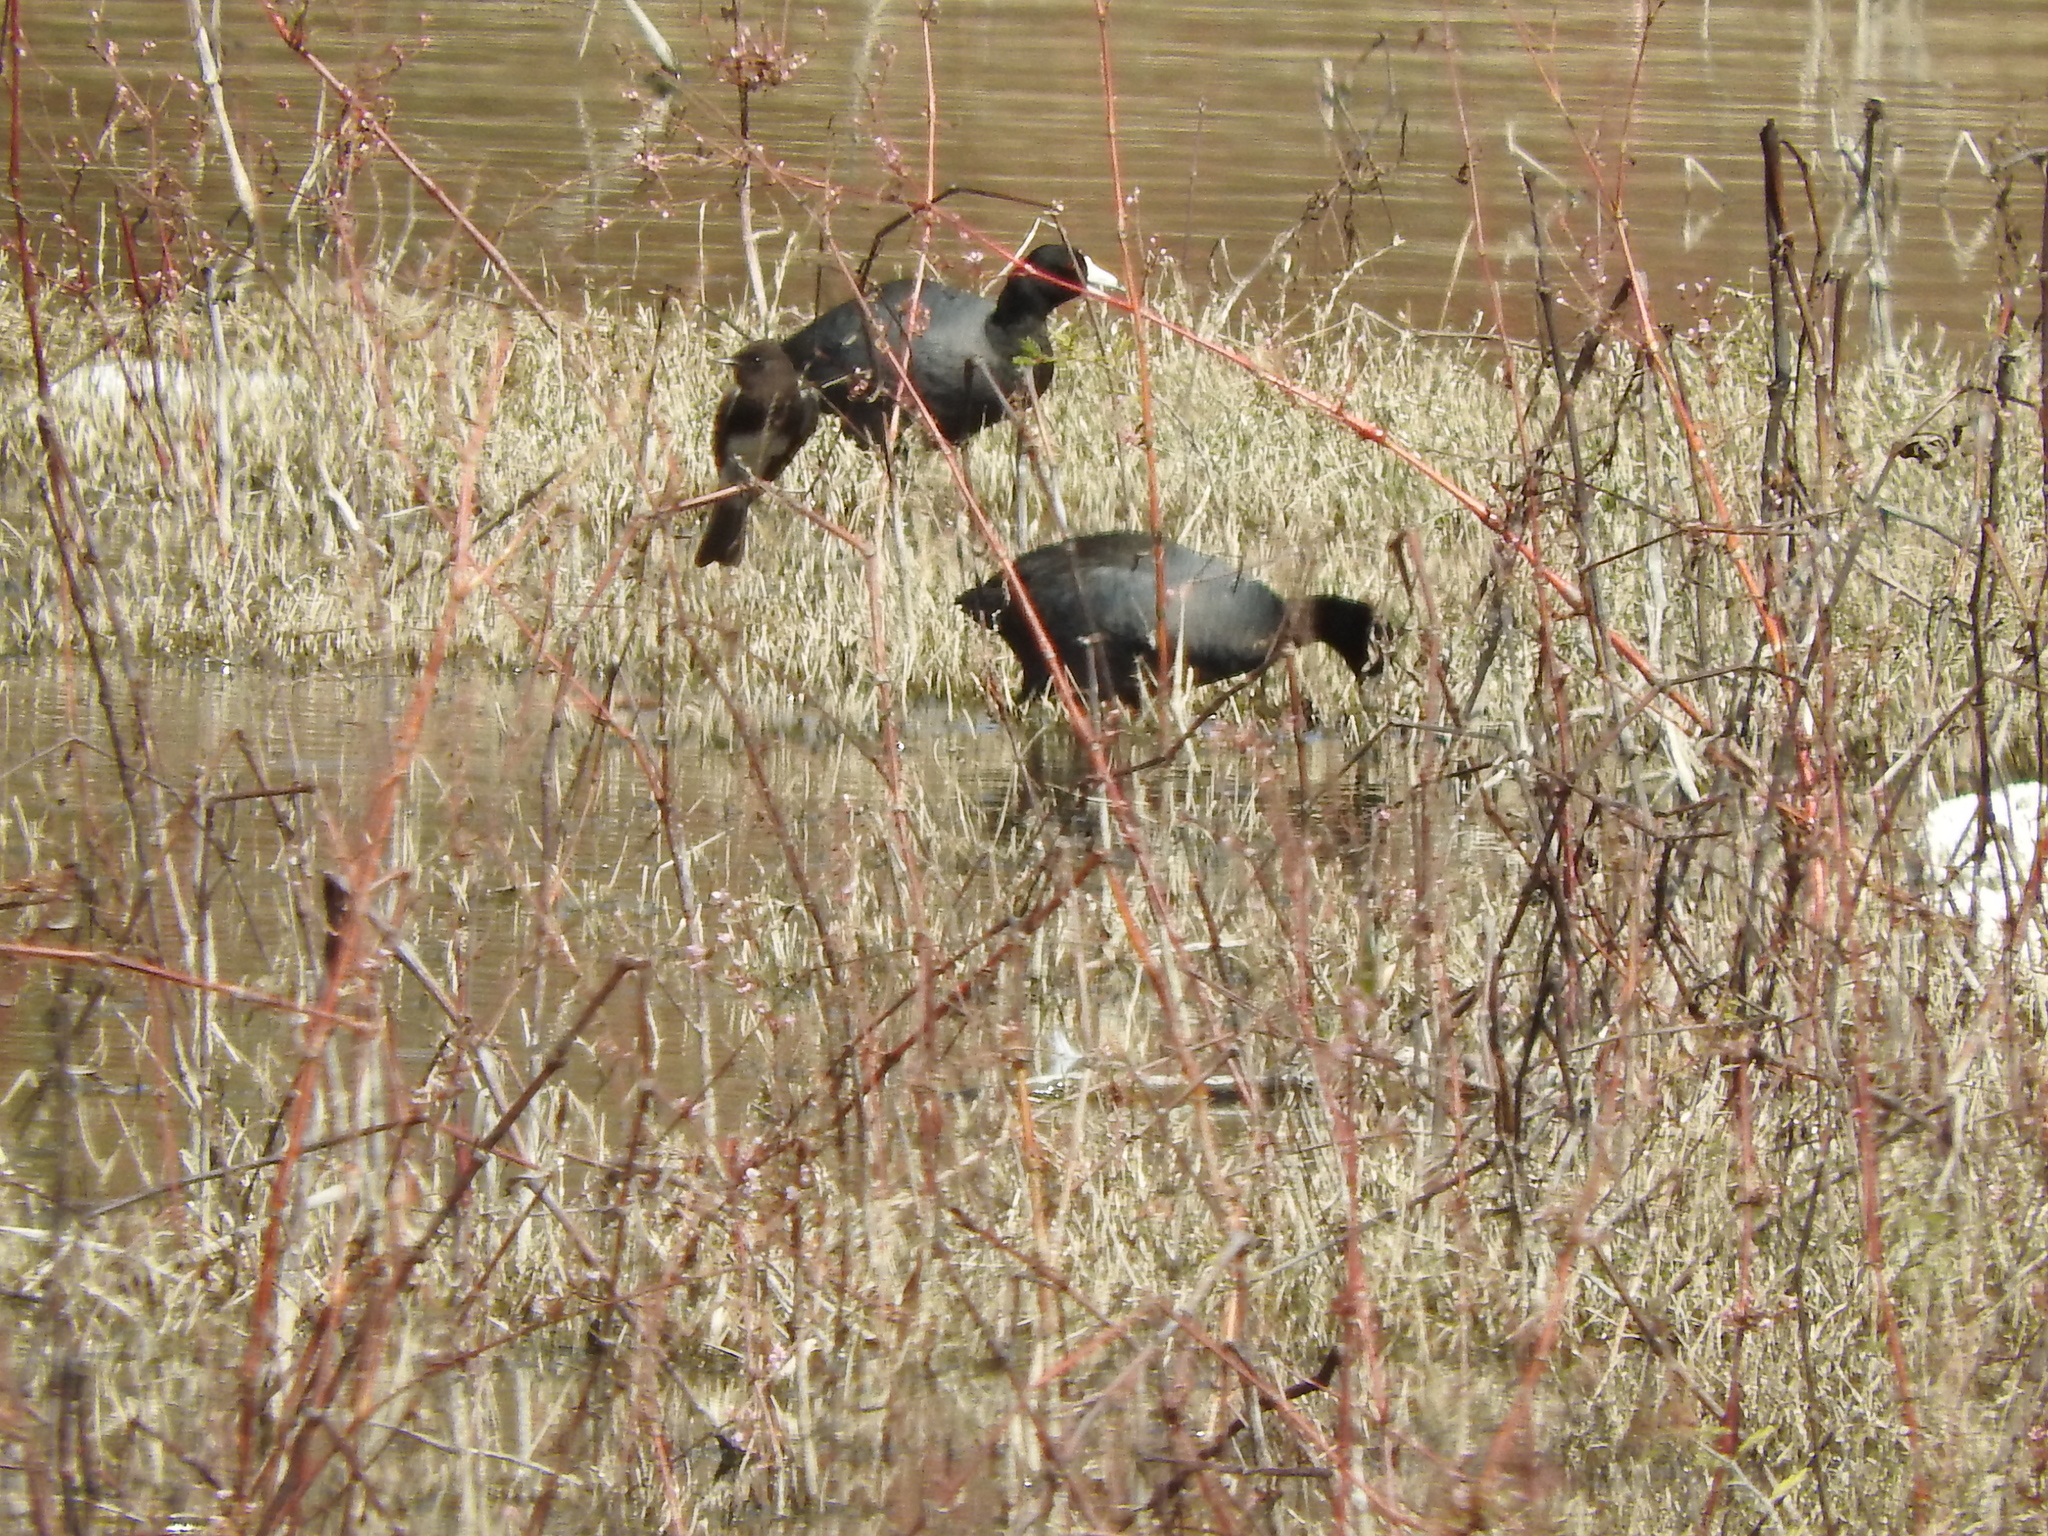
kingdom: Animalia
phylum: Chordata
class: Aves
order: Passeriformes
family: Tyrannidae
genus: Sayornis
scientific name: Sayornis nigricans
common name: Black phoebe
